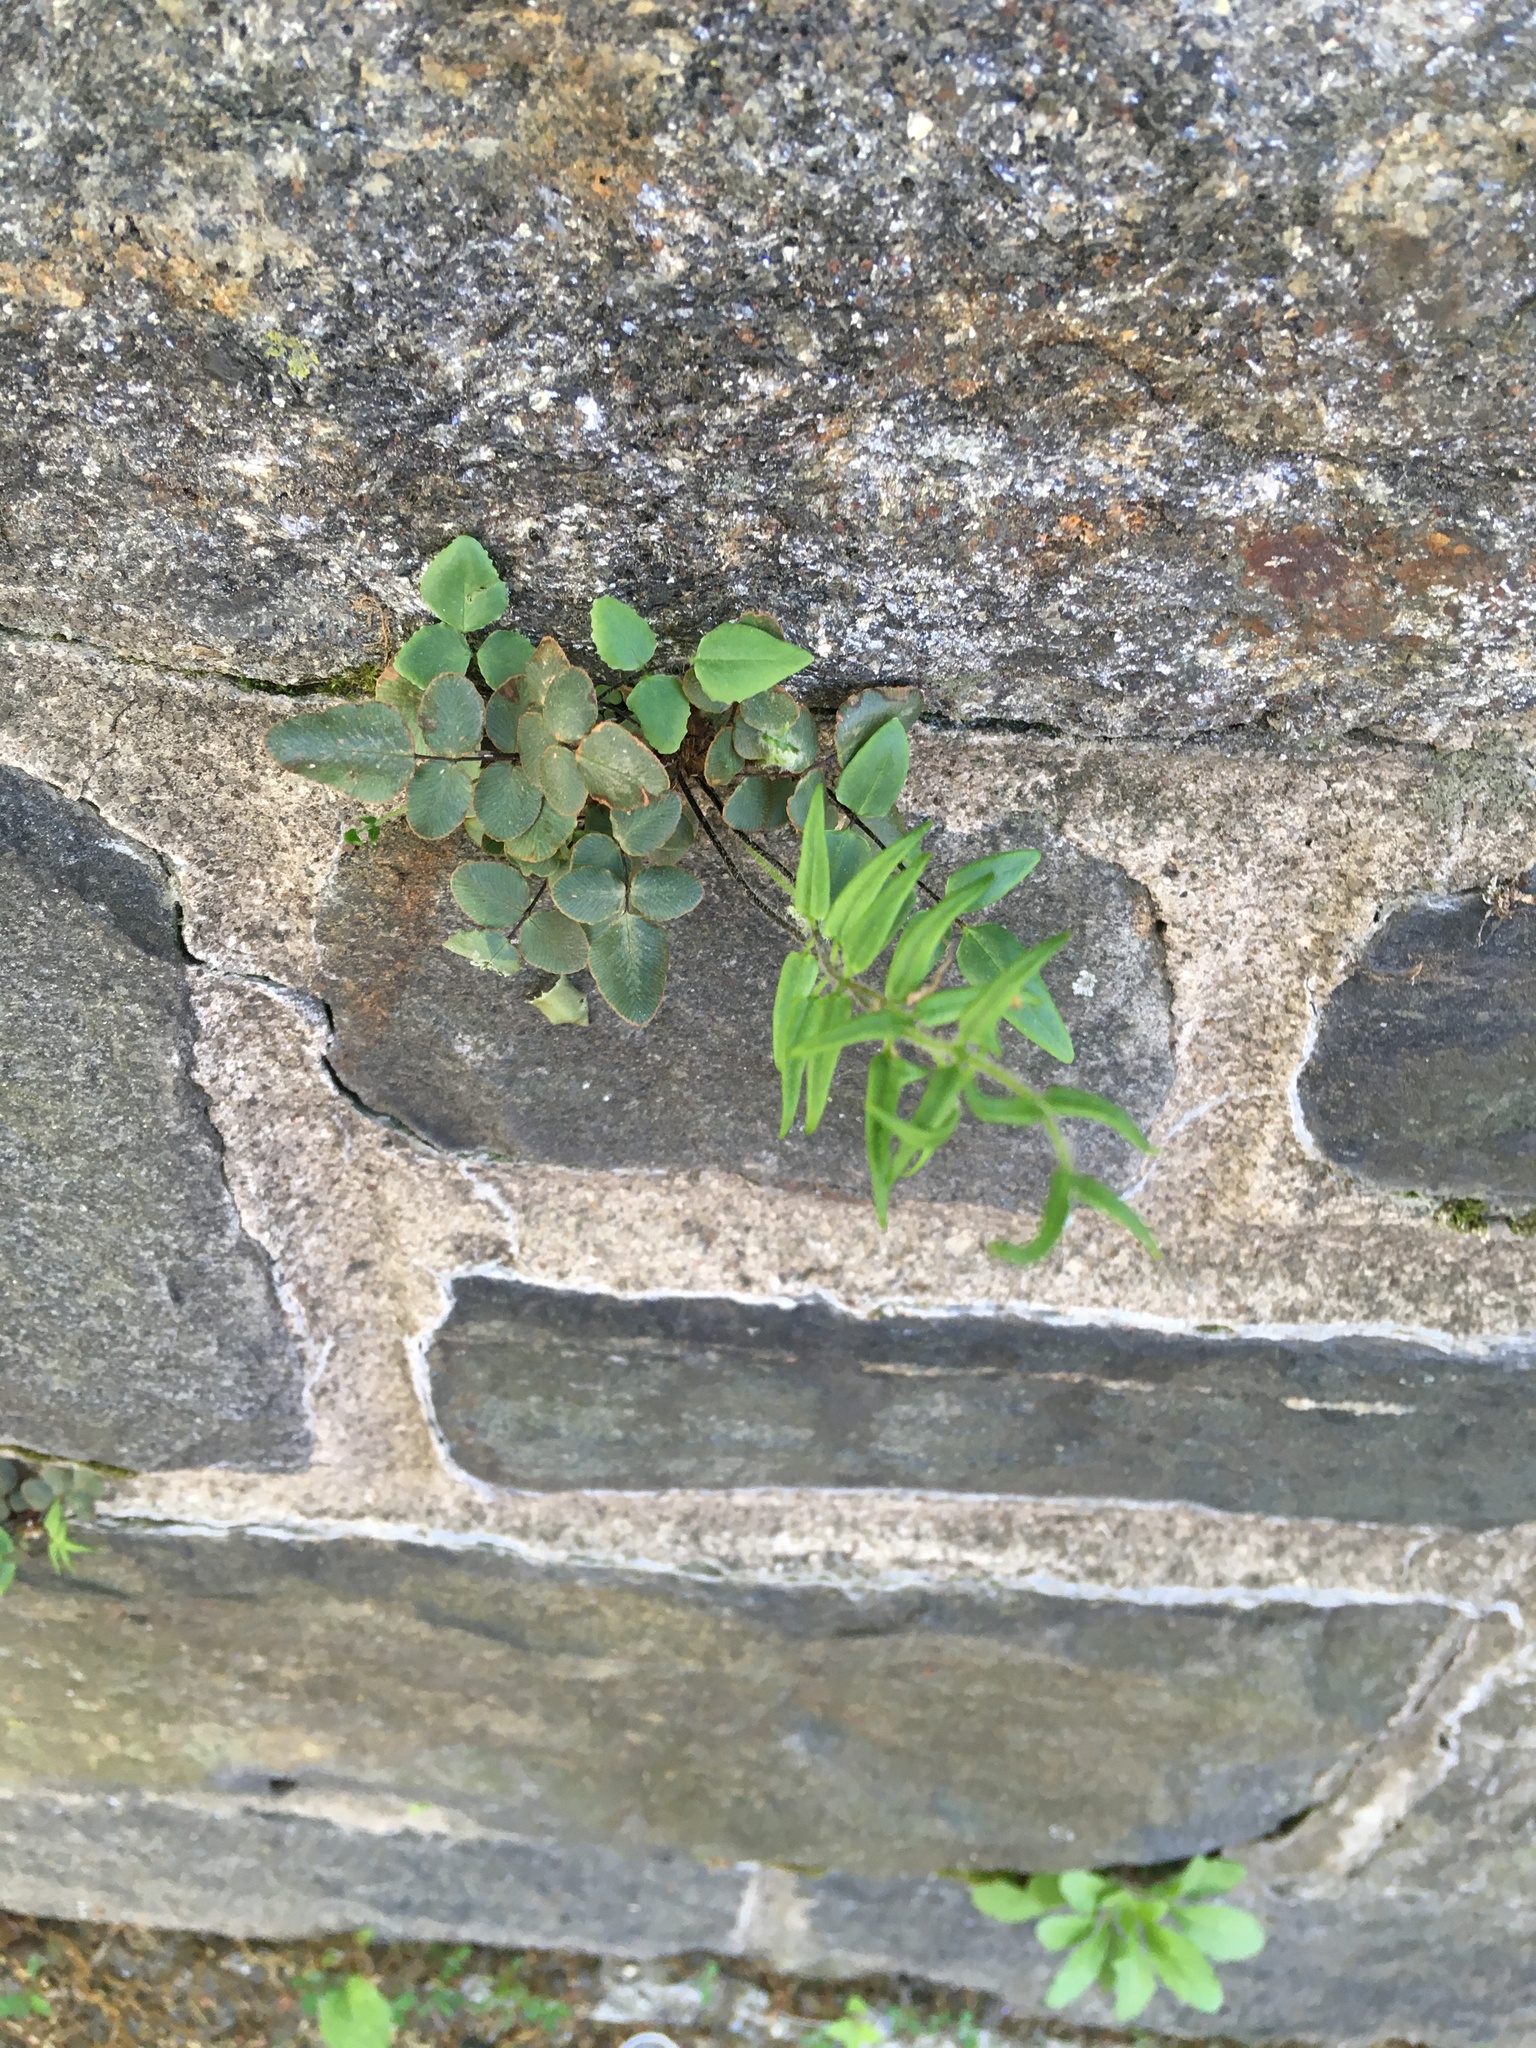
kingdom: Plantae
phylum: Tracheophyta
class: Polypodiopsida
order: Polypodiales
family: Pteridaceae
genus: Pellaea
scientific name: Pellaea atropurpurea
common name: Hairy cliffbrake
